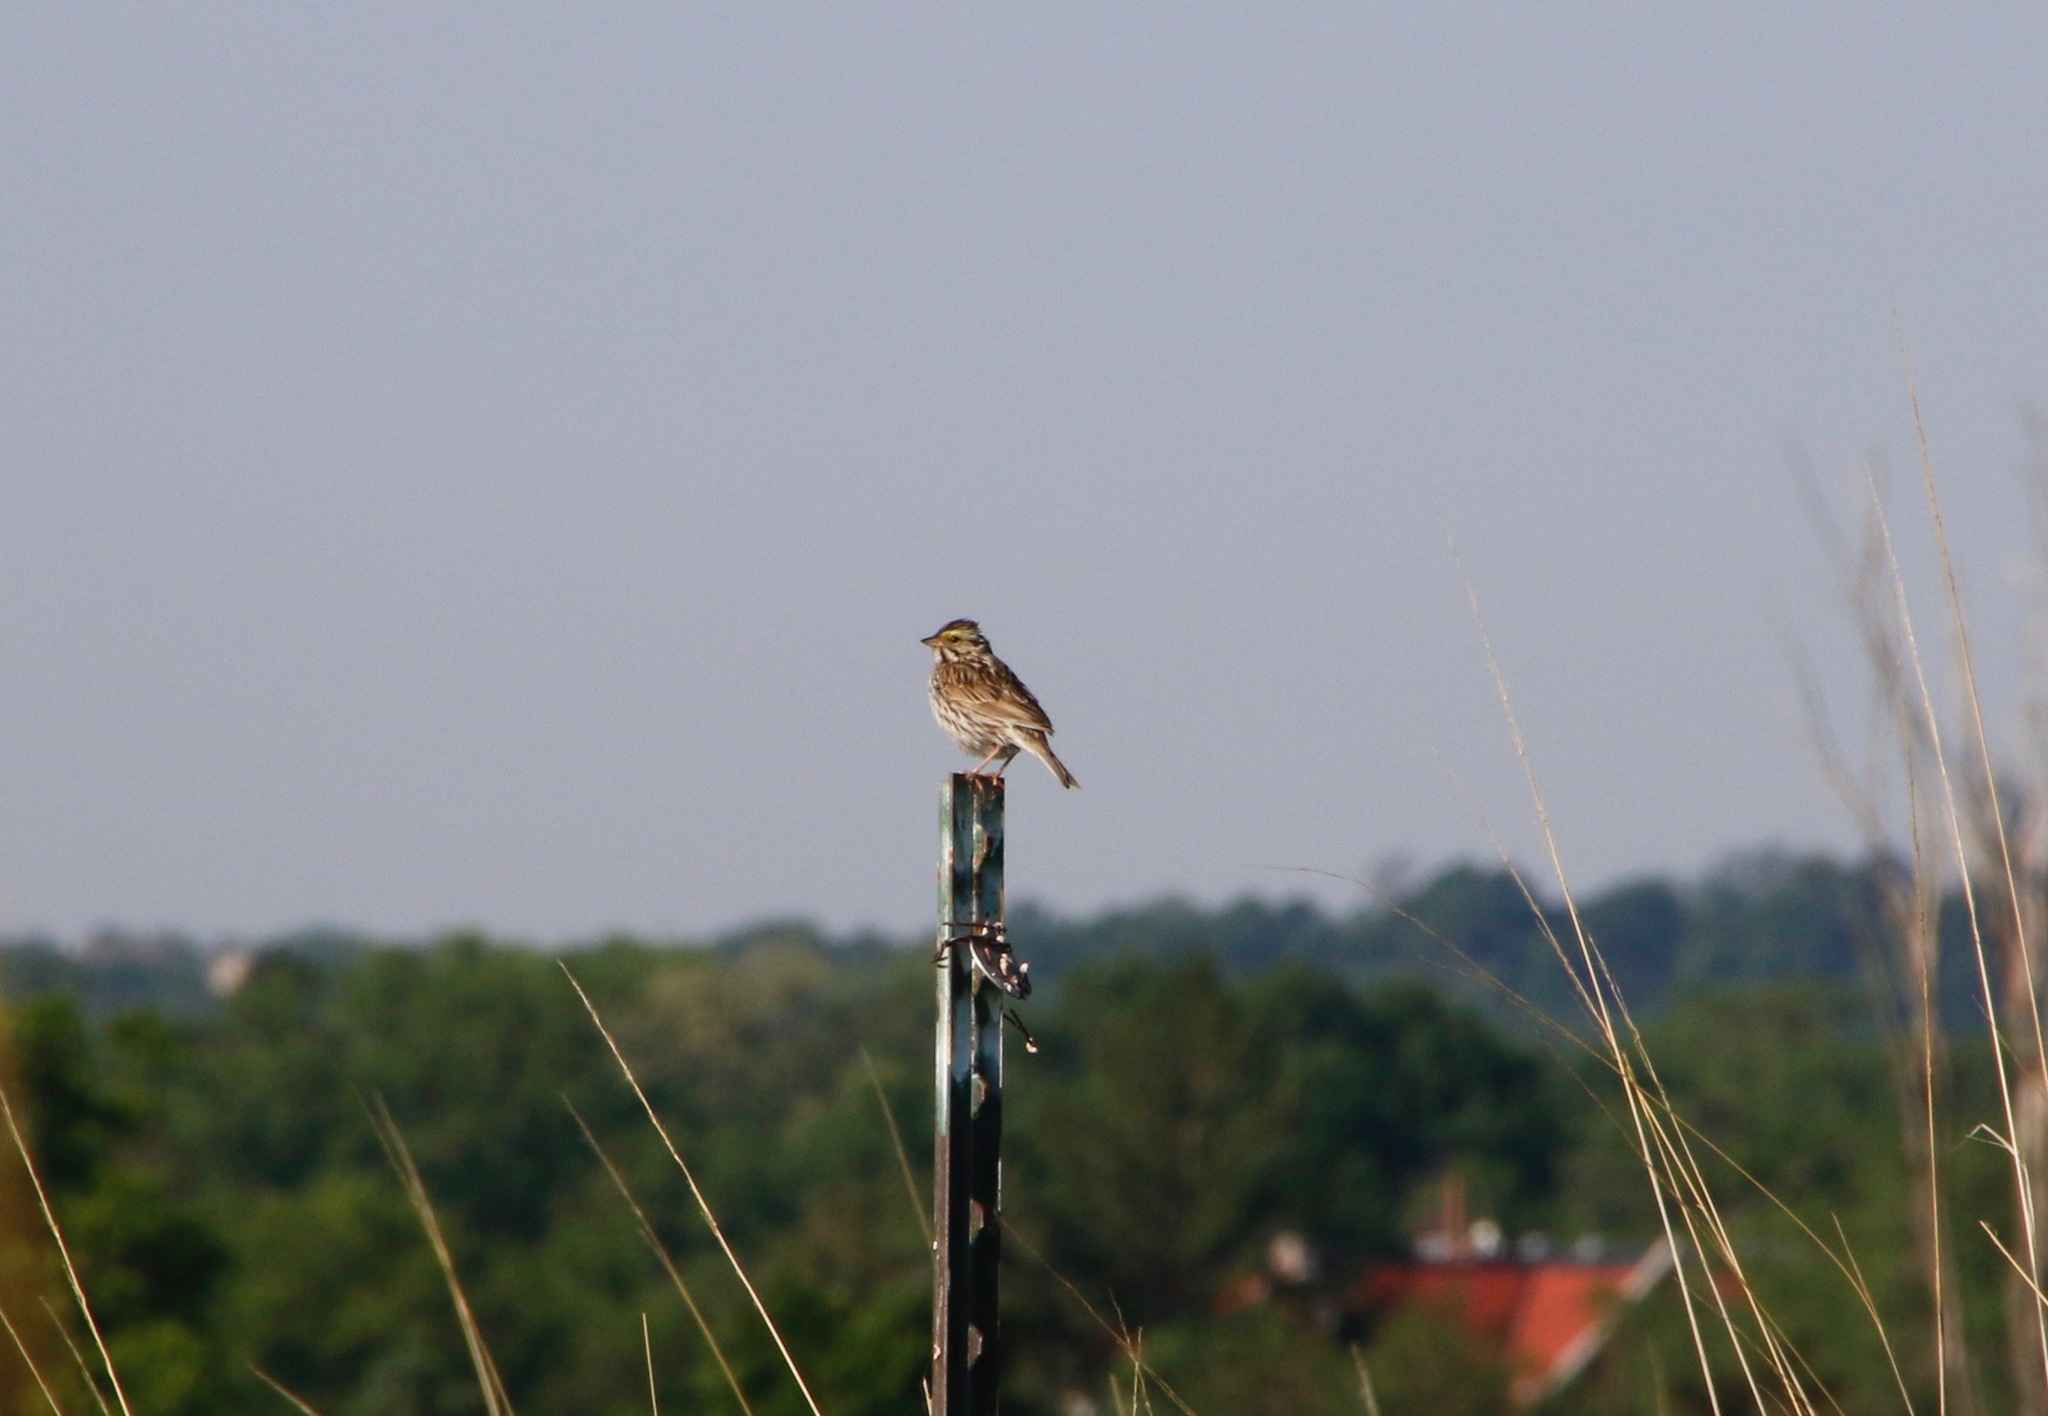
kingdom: Animalia
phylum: Chordata
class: Aves
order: Passeriformes
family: Passerellidae
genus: Passerculus
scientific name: Passerculus sandwichensis
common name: Savannah sparrow
